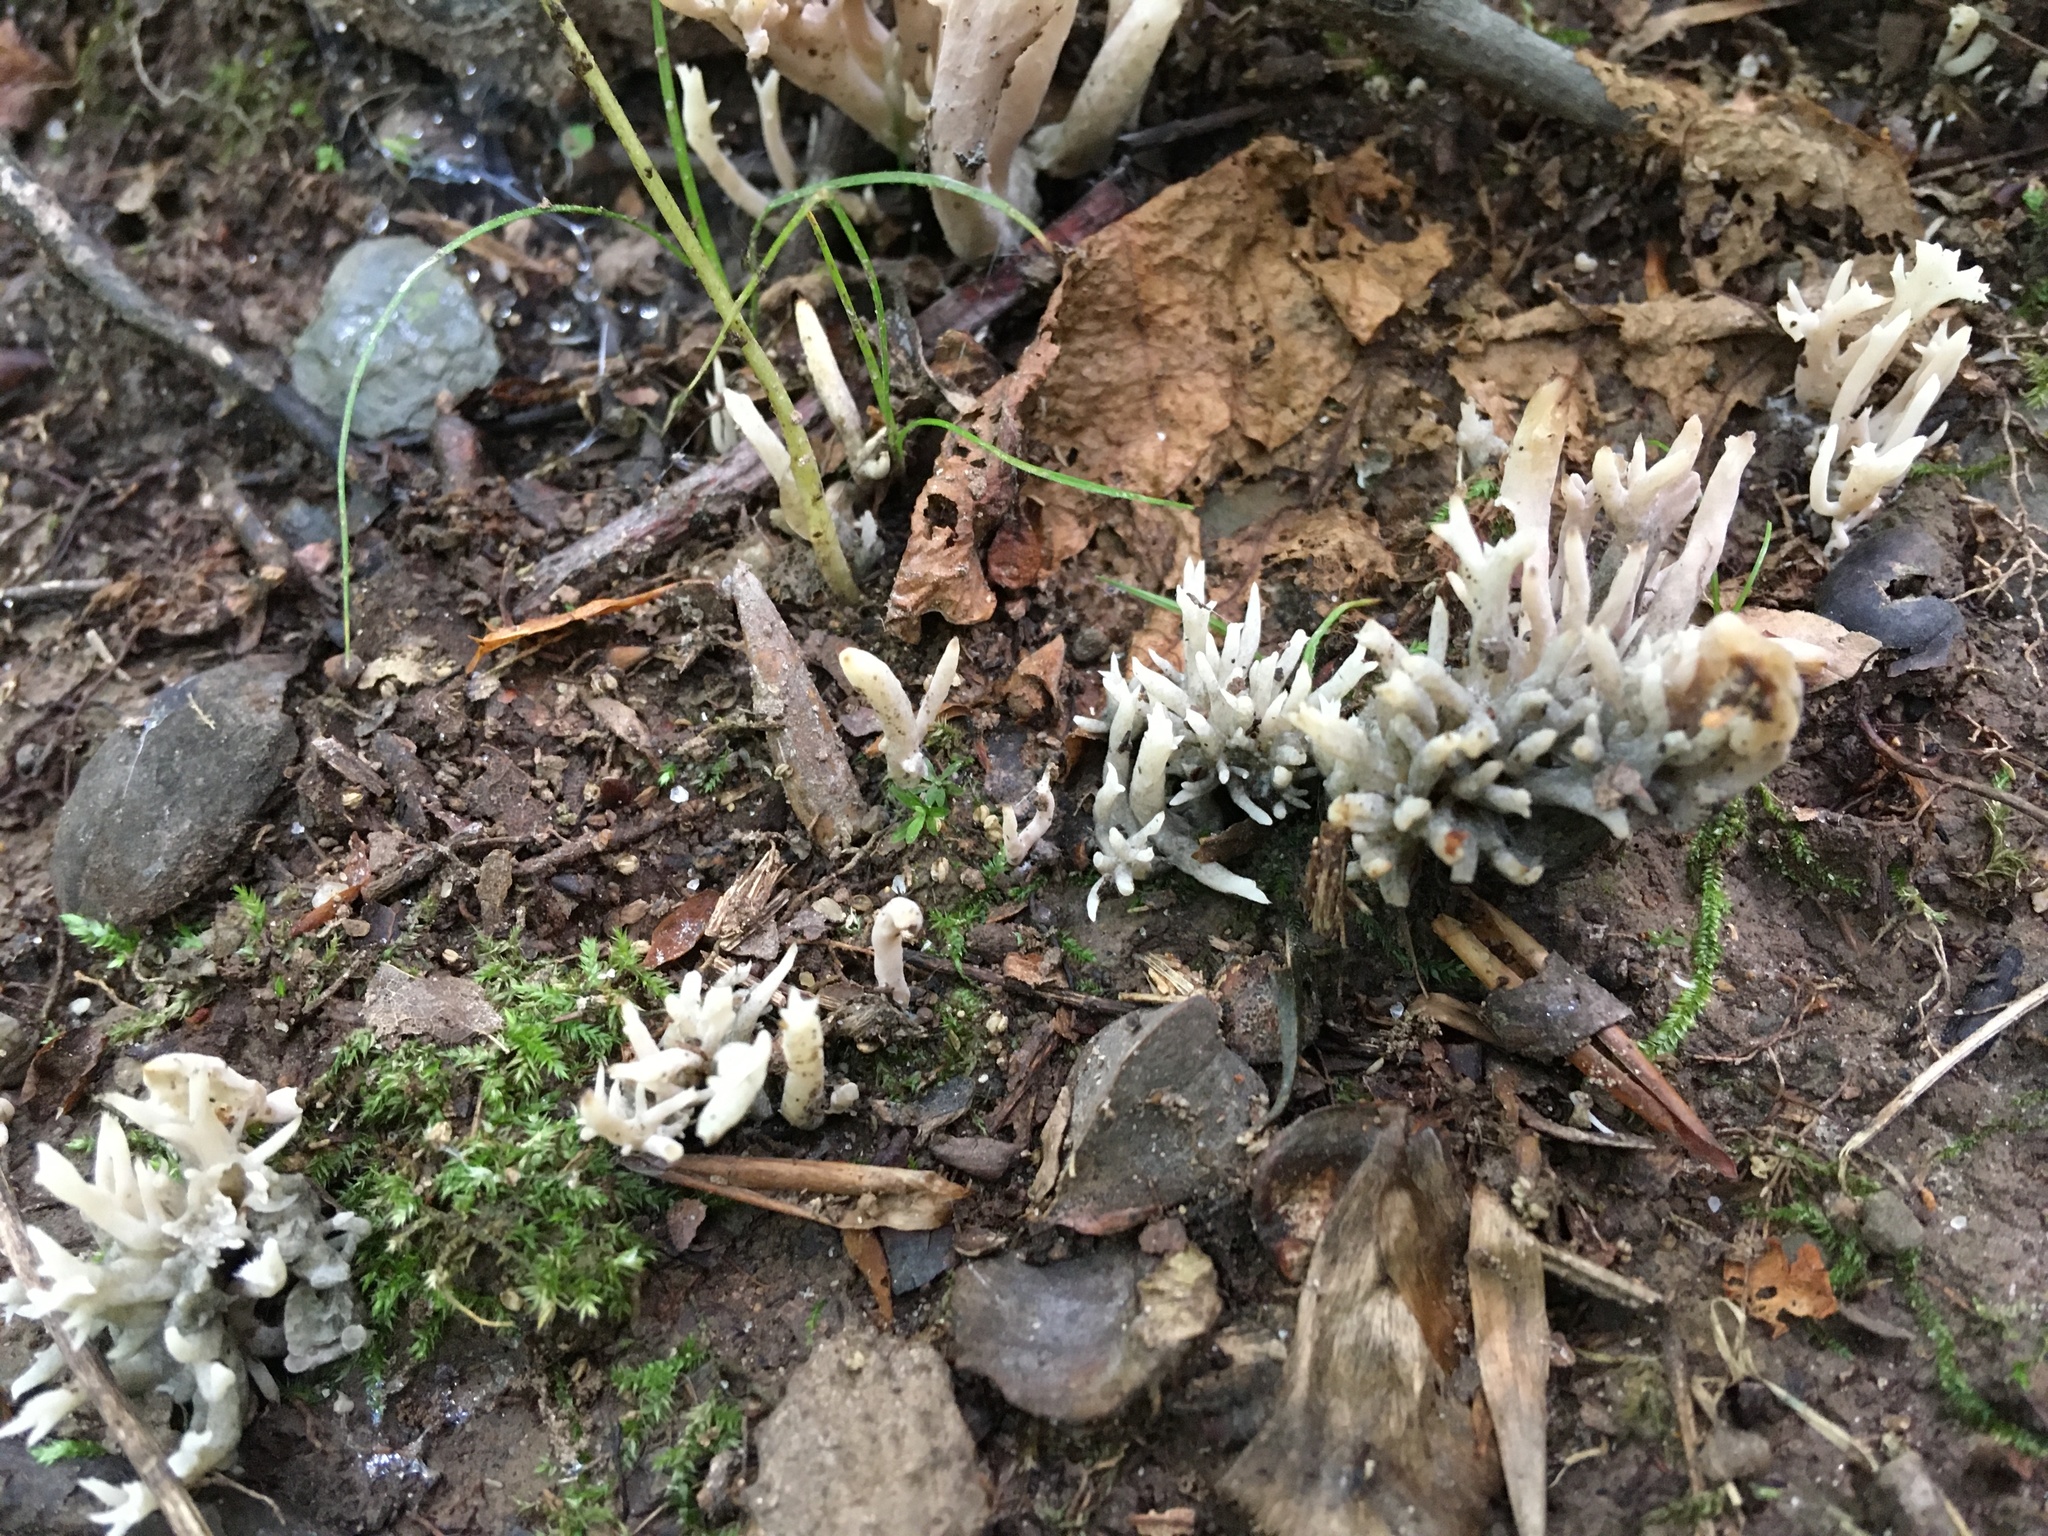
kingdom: Fungi
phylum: Ascomycota
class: Sordariomycetes
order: Sordariales
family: Helminthosphaeriaceae
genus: Helminthosphaeria
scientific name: Helminthosphaeria clavariarum
